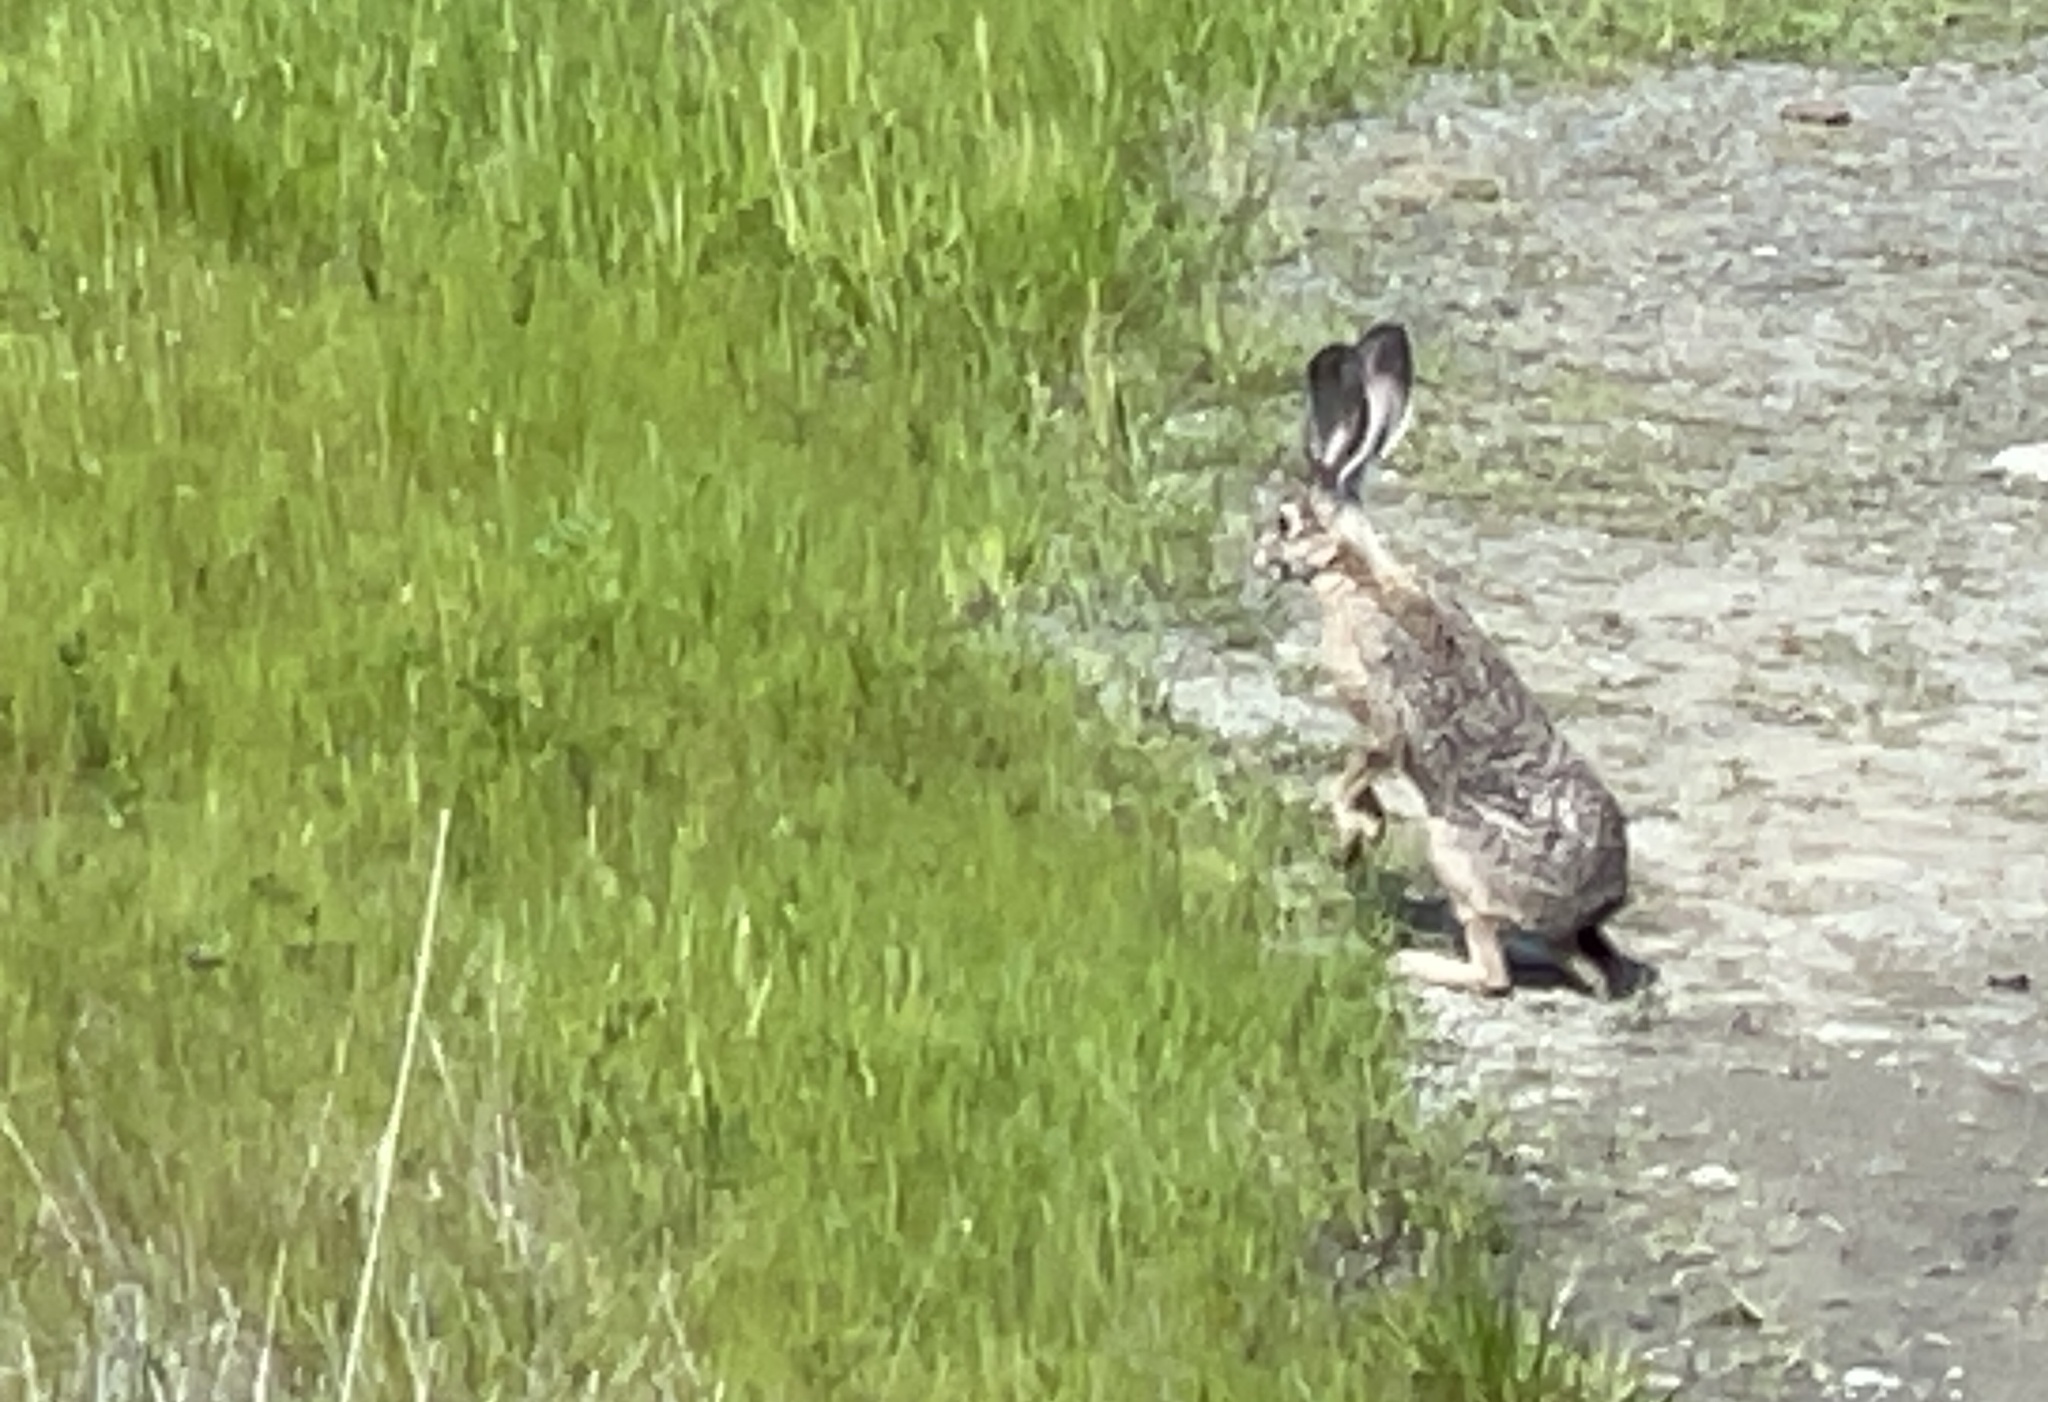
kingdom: Animalia
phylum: Chordata
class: Mammalia
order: Lagomorpha
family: Leporidae
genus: Lepus
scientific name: Lepus californicus
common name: Black-tailed jackrabbit
